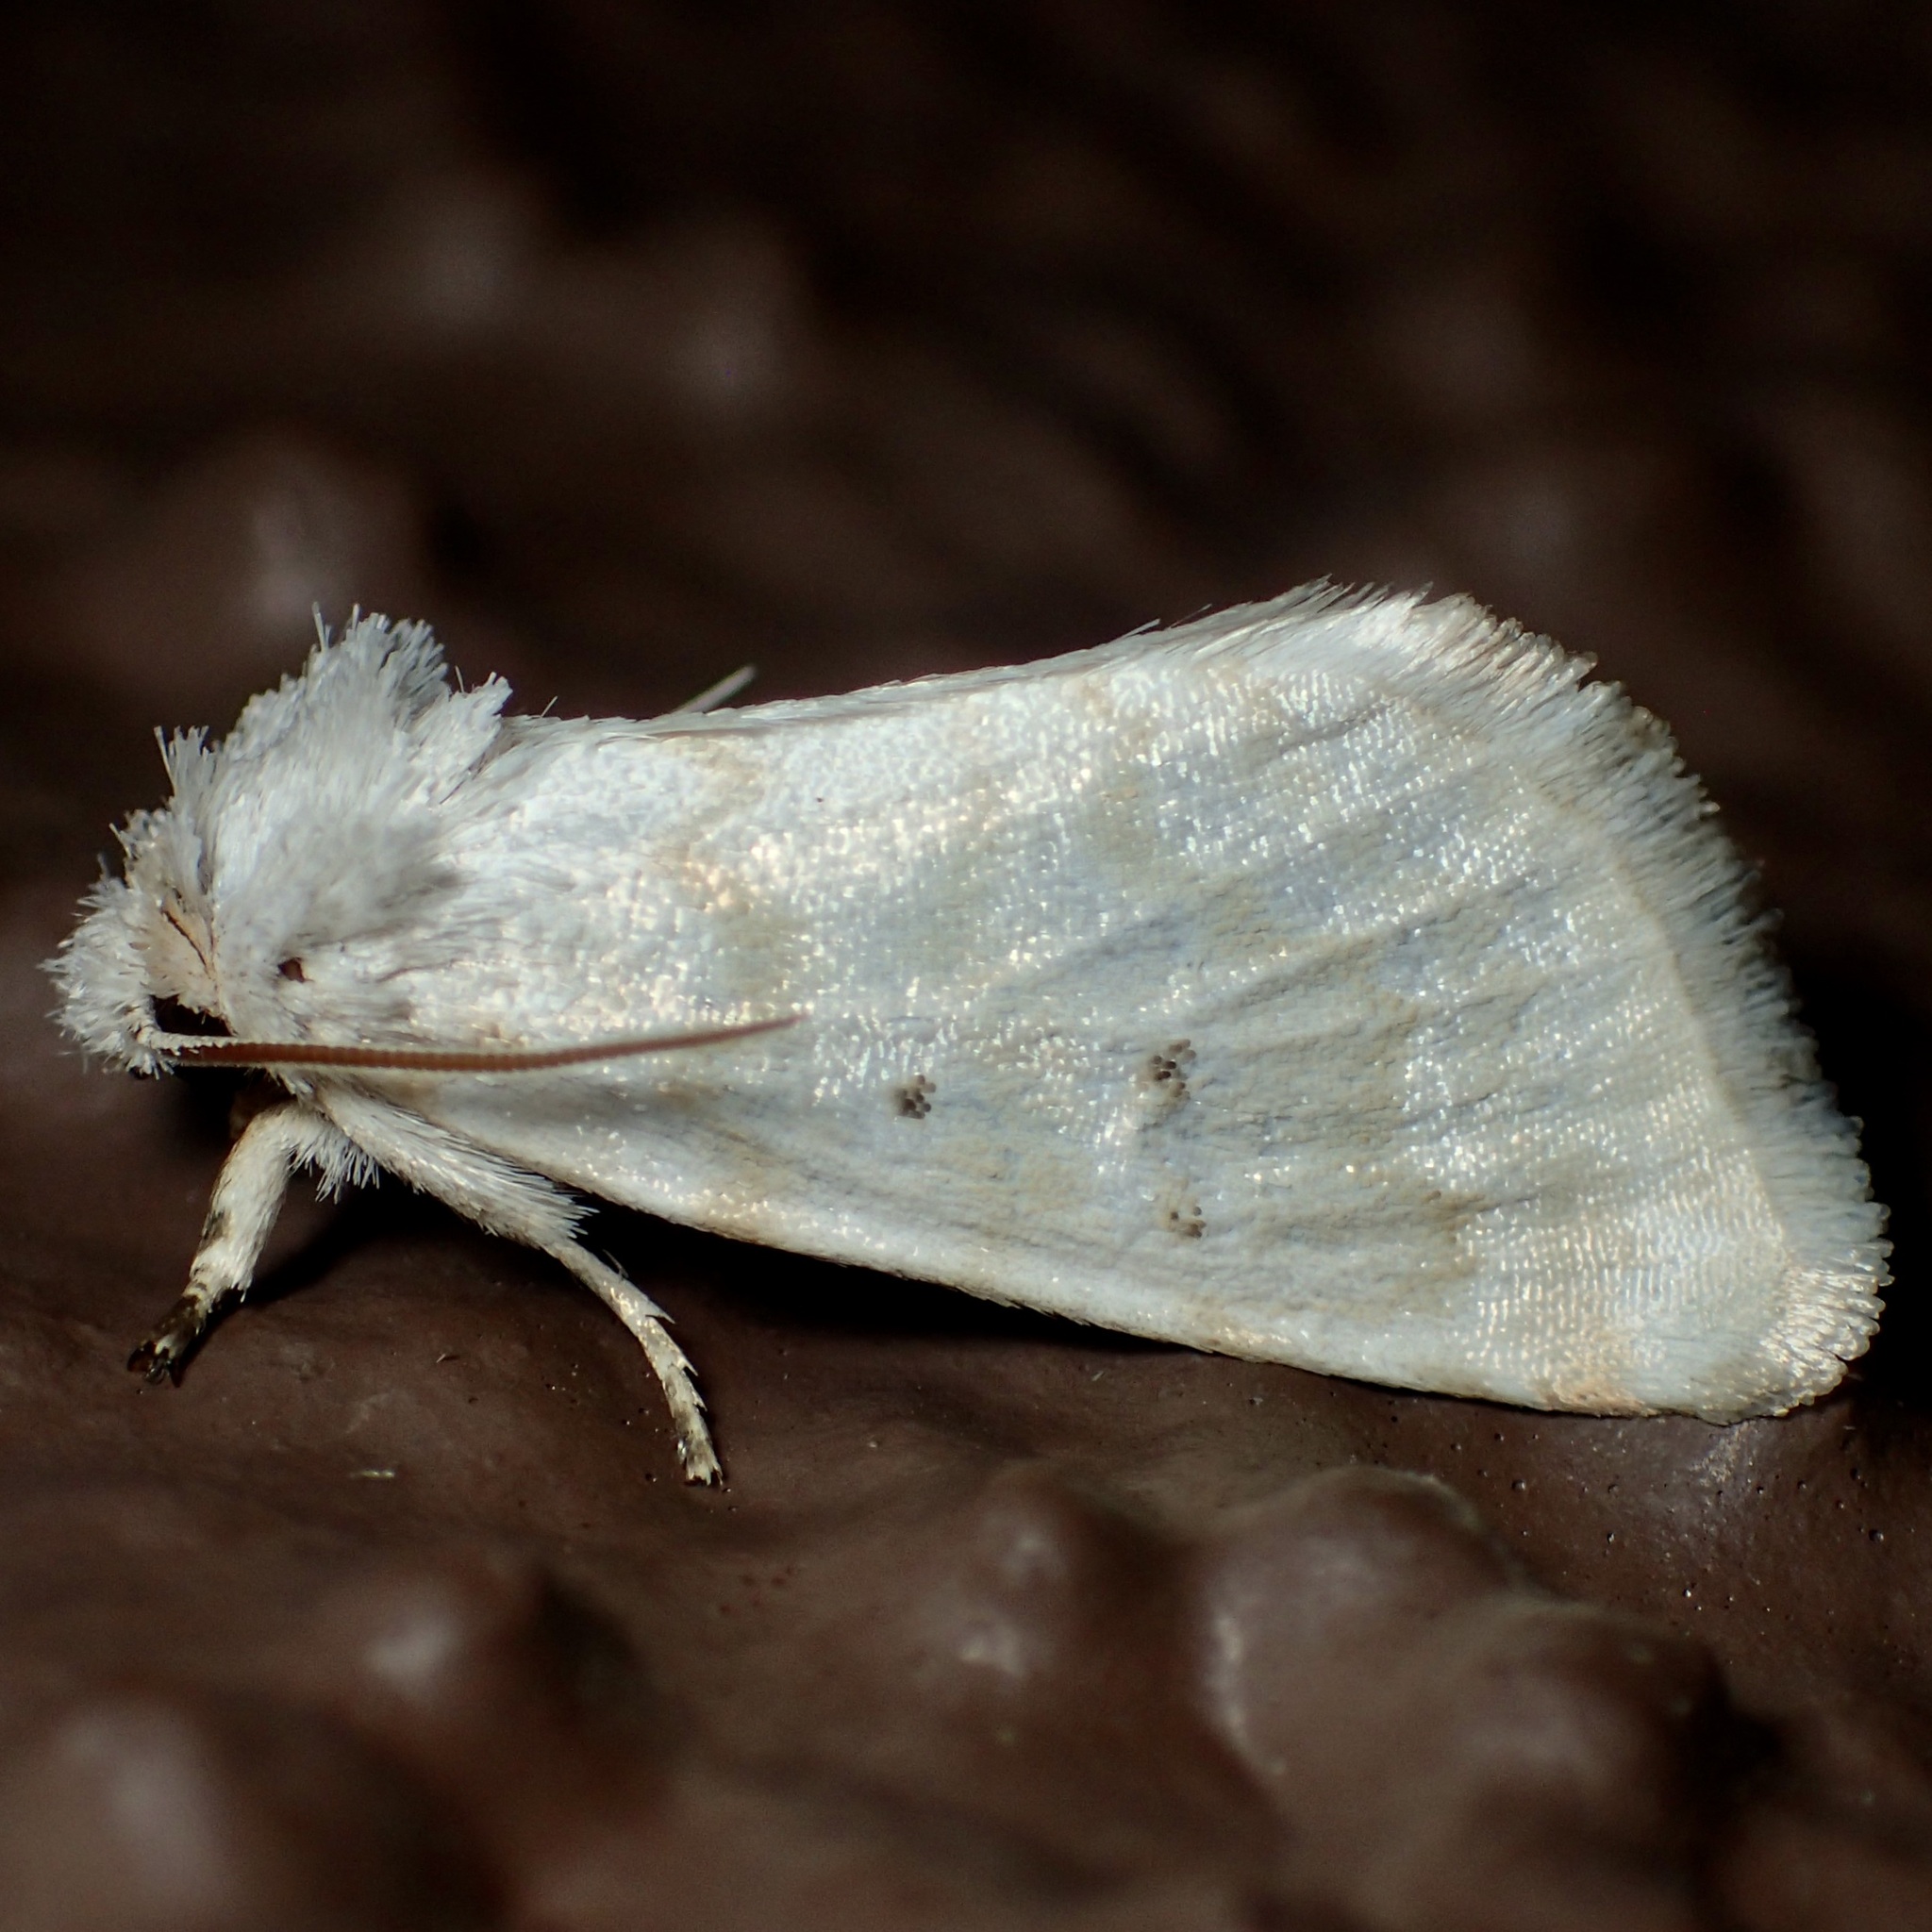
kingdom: Animalia
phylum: Arthropoda
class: Insecta
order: Lepidoptera
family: Noctuidae
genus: Lythrodes
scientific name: Lythrodes tripuncta
